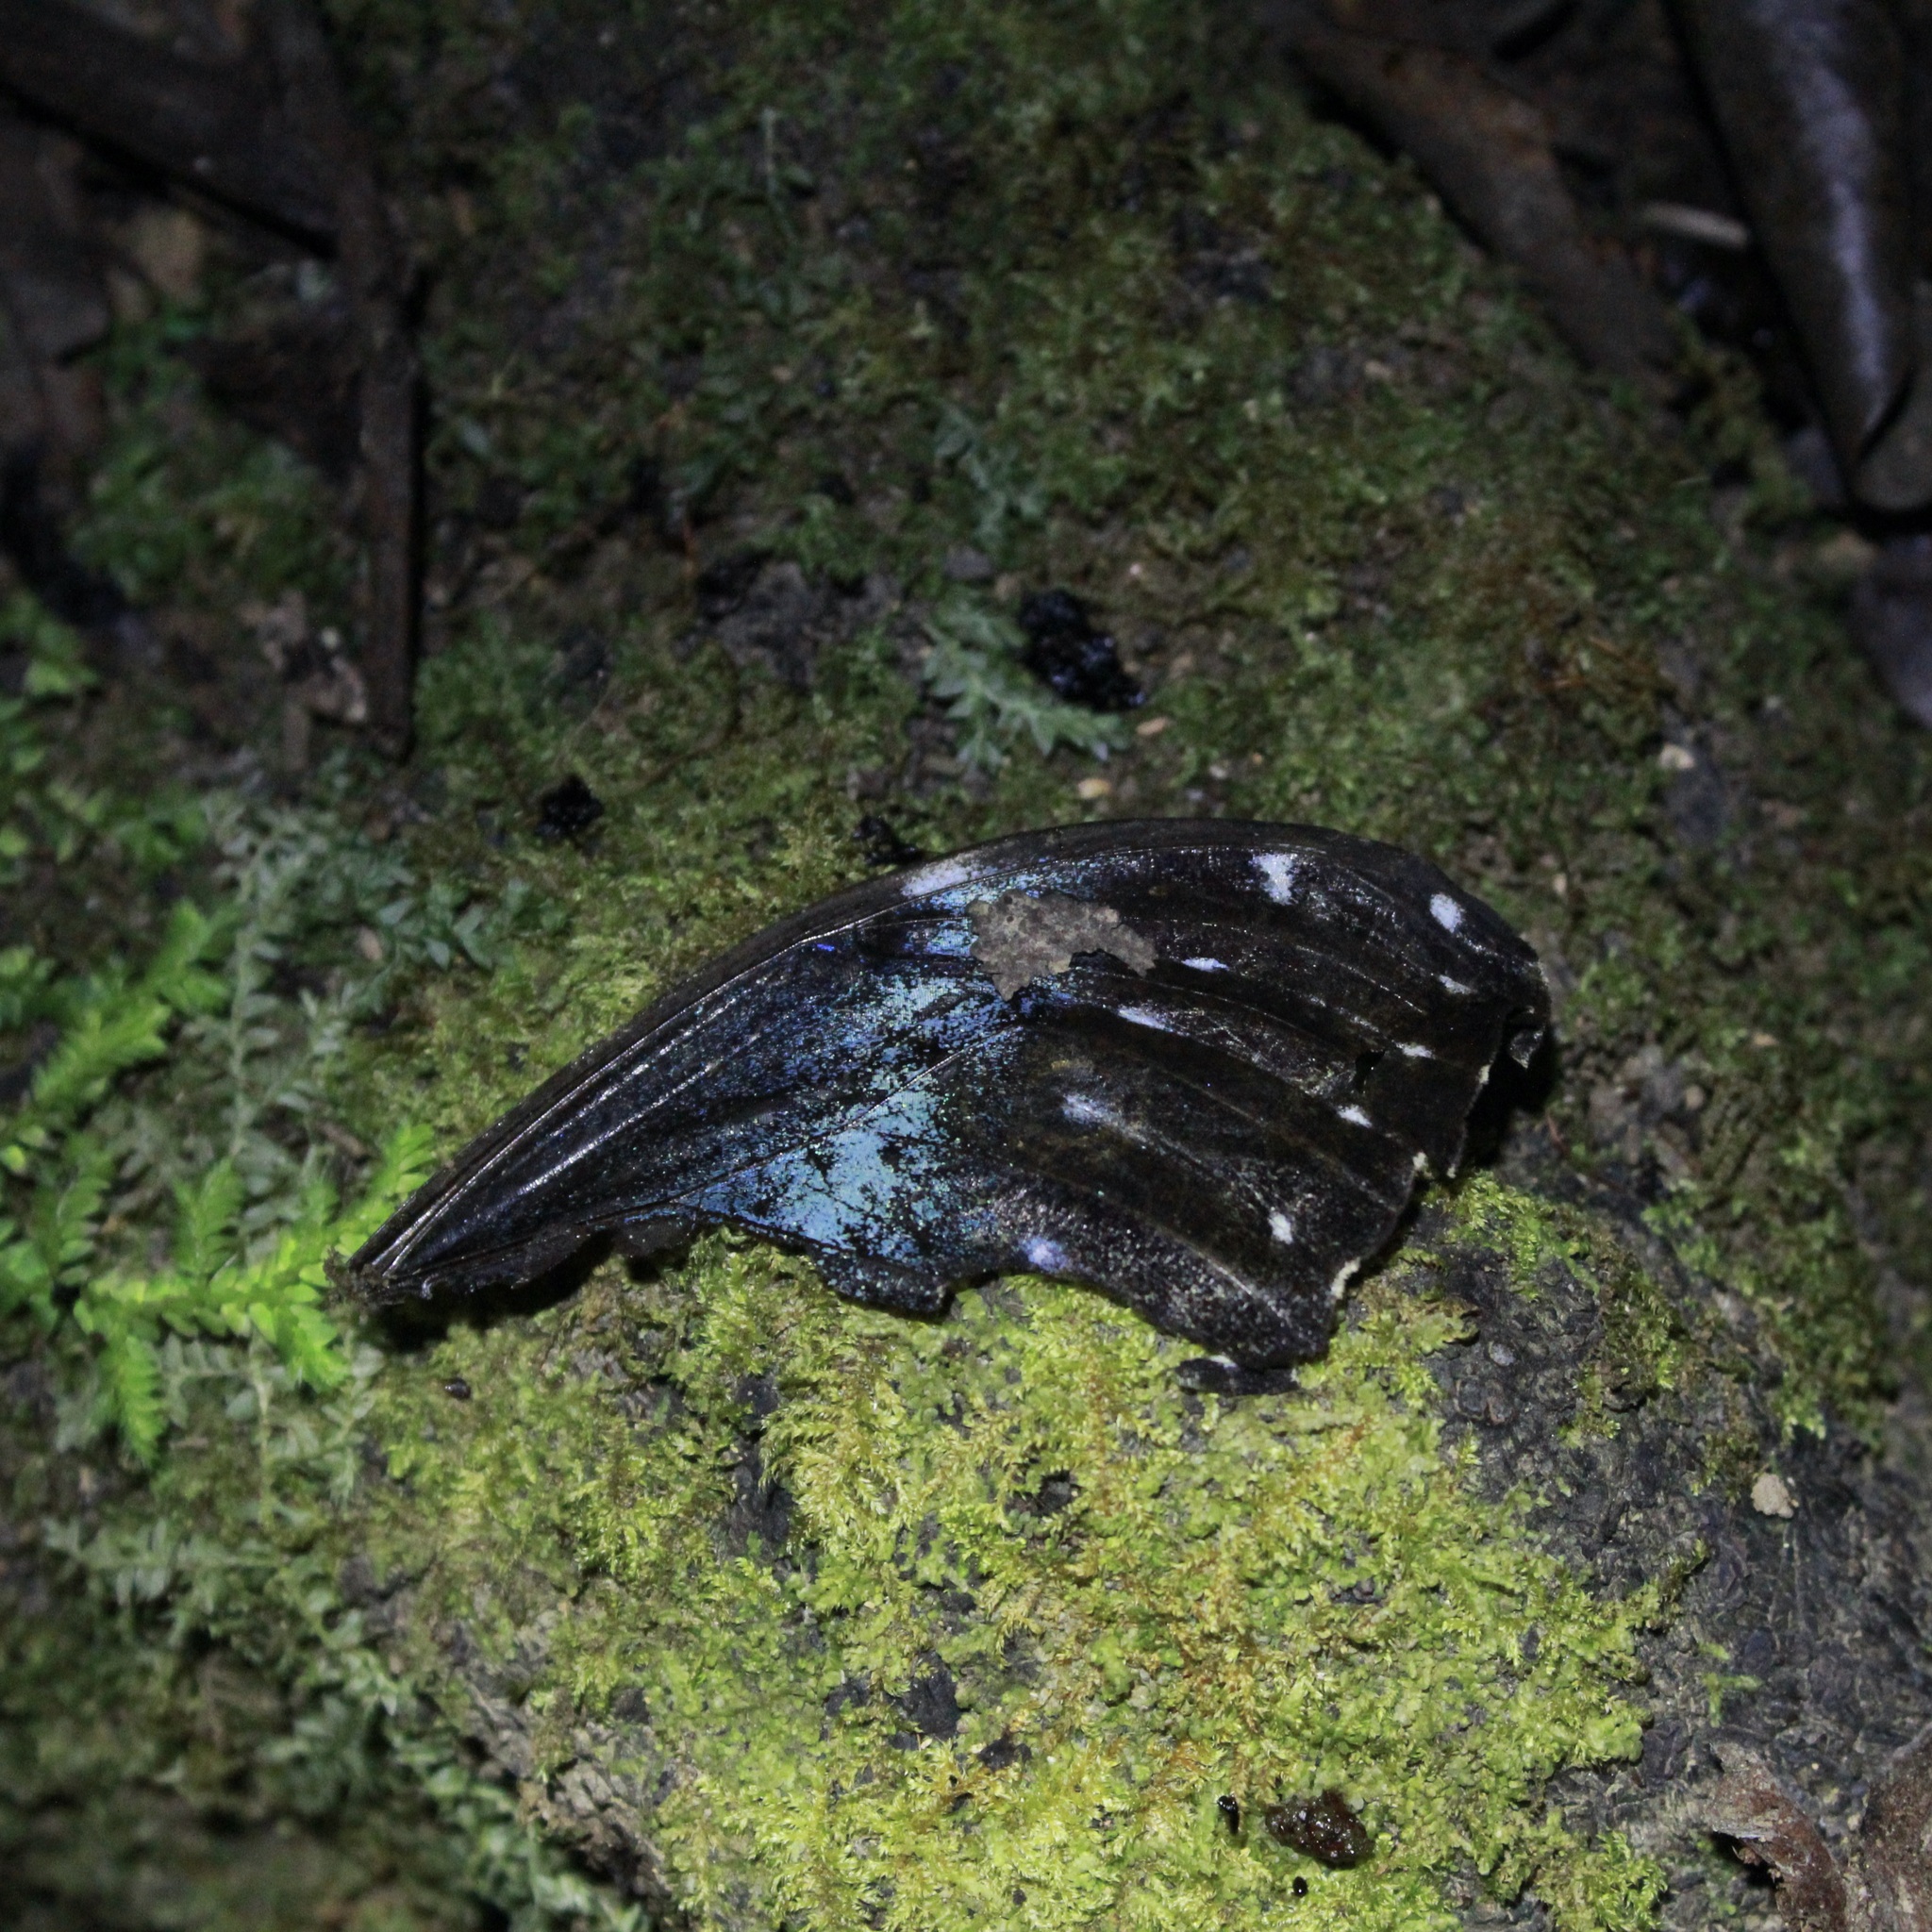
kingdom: Animalia
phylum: Arthropoda
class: Insecta
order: Lepidoptera
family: Nymphalidae
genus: Morpho
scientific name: Morpho helenor
